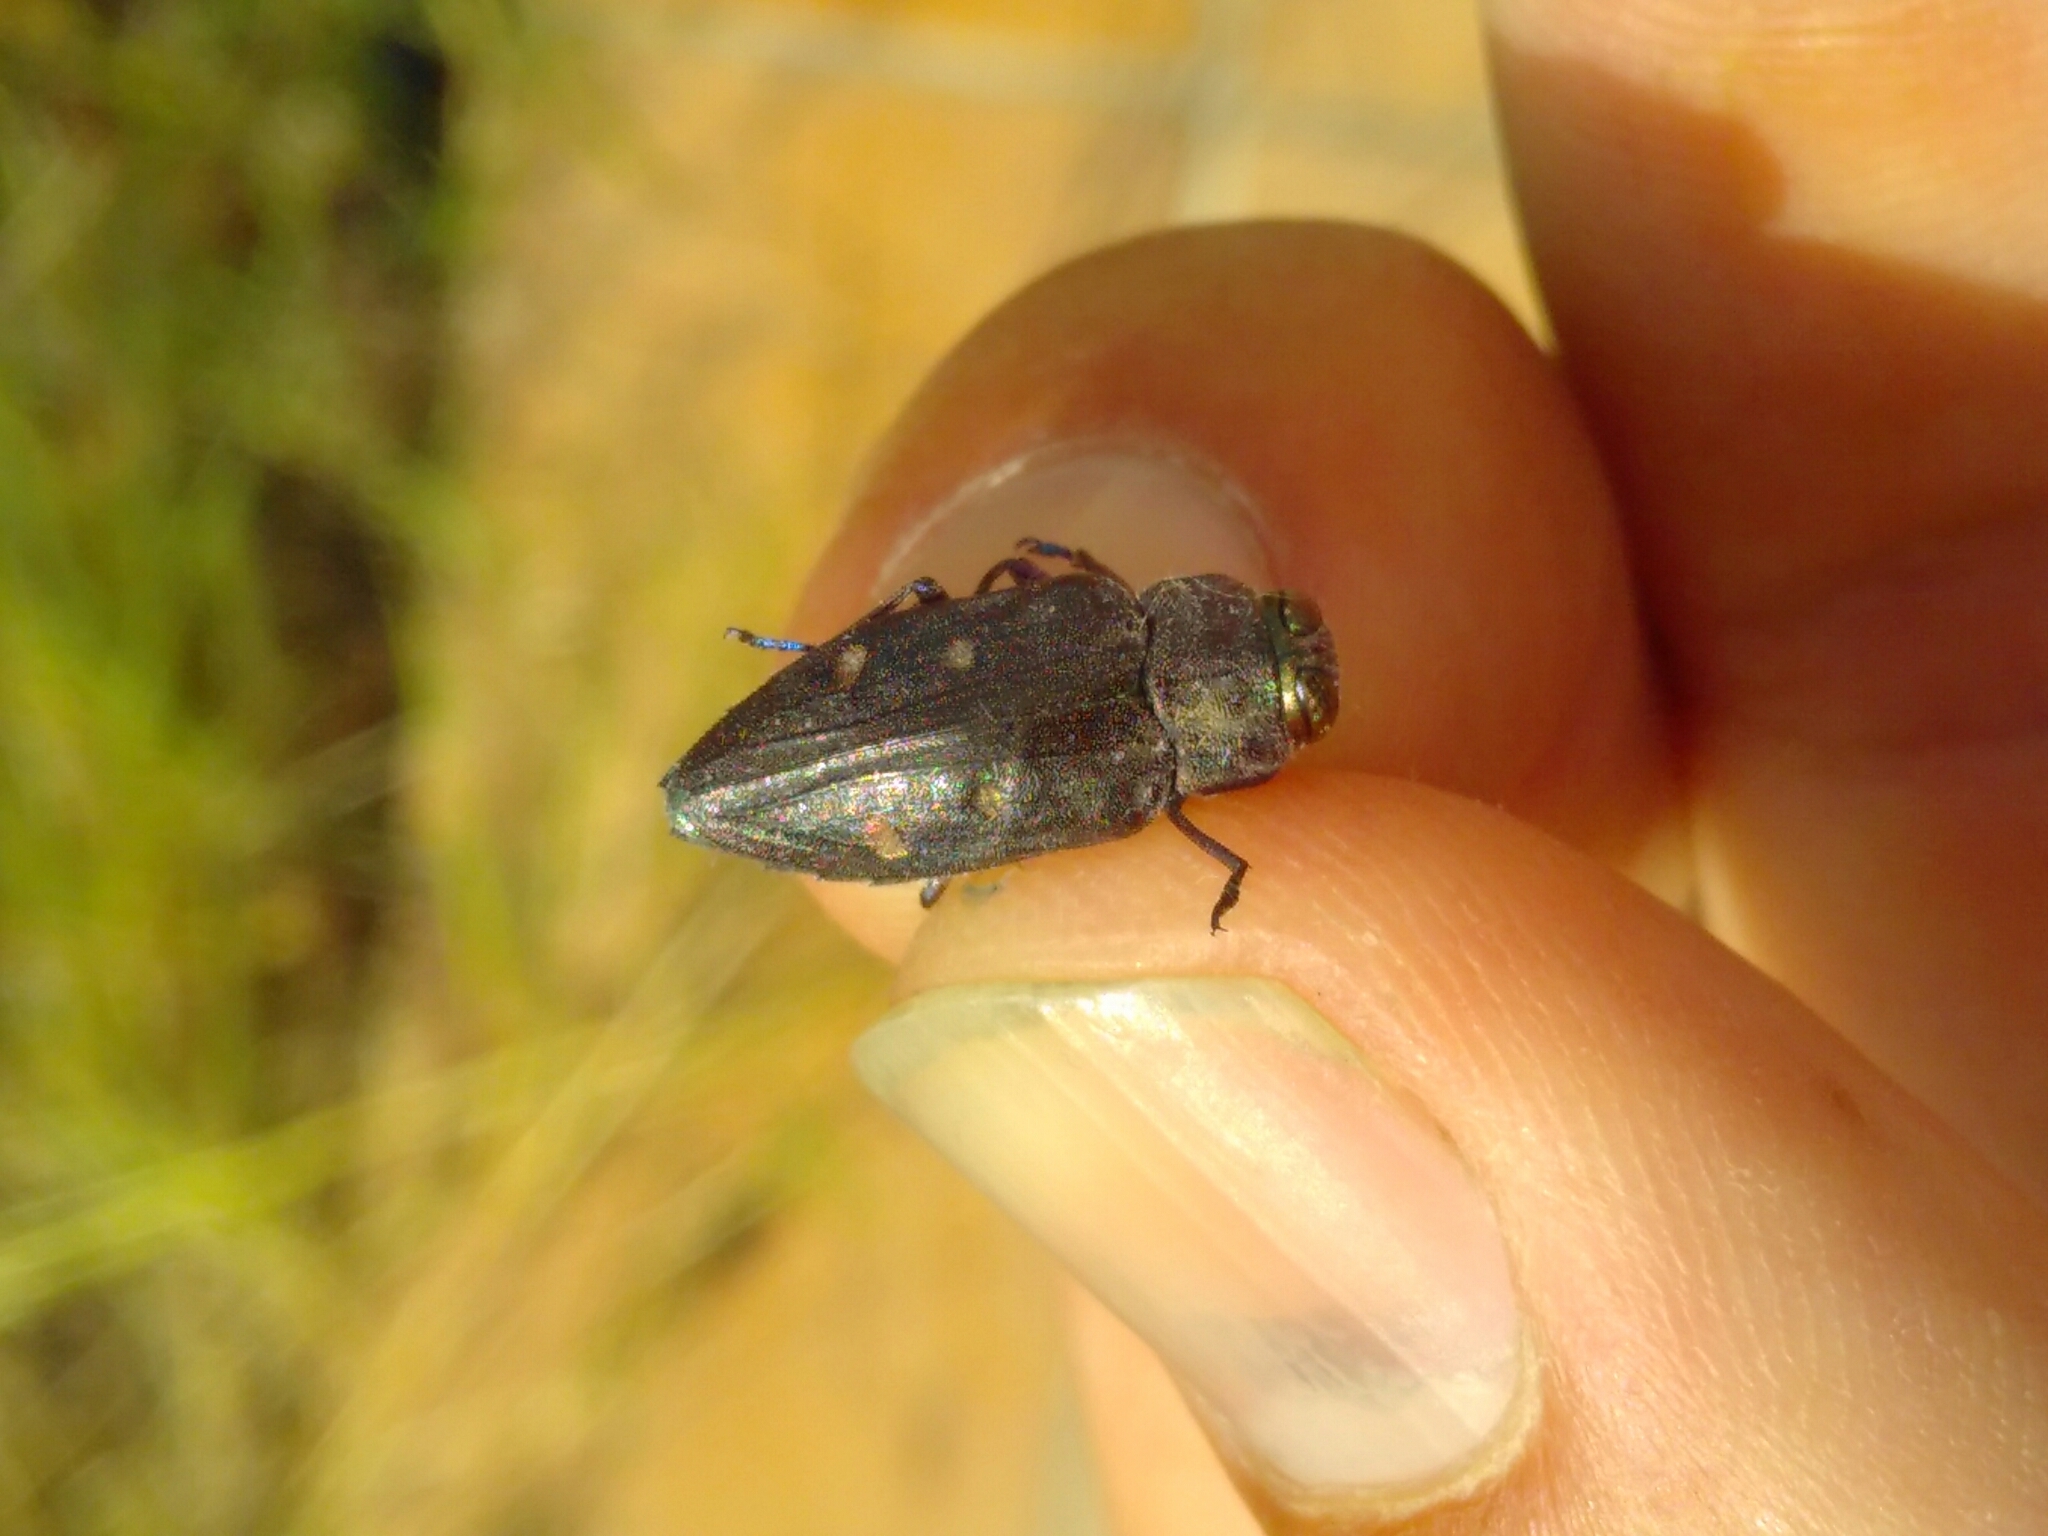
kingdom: Animalia
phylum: Arthropoda
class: Insecta
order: Coleoptera
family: Buprestidae
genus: Chrysobothris
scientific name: Chrysobothris affinis
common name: Beetle
